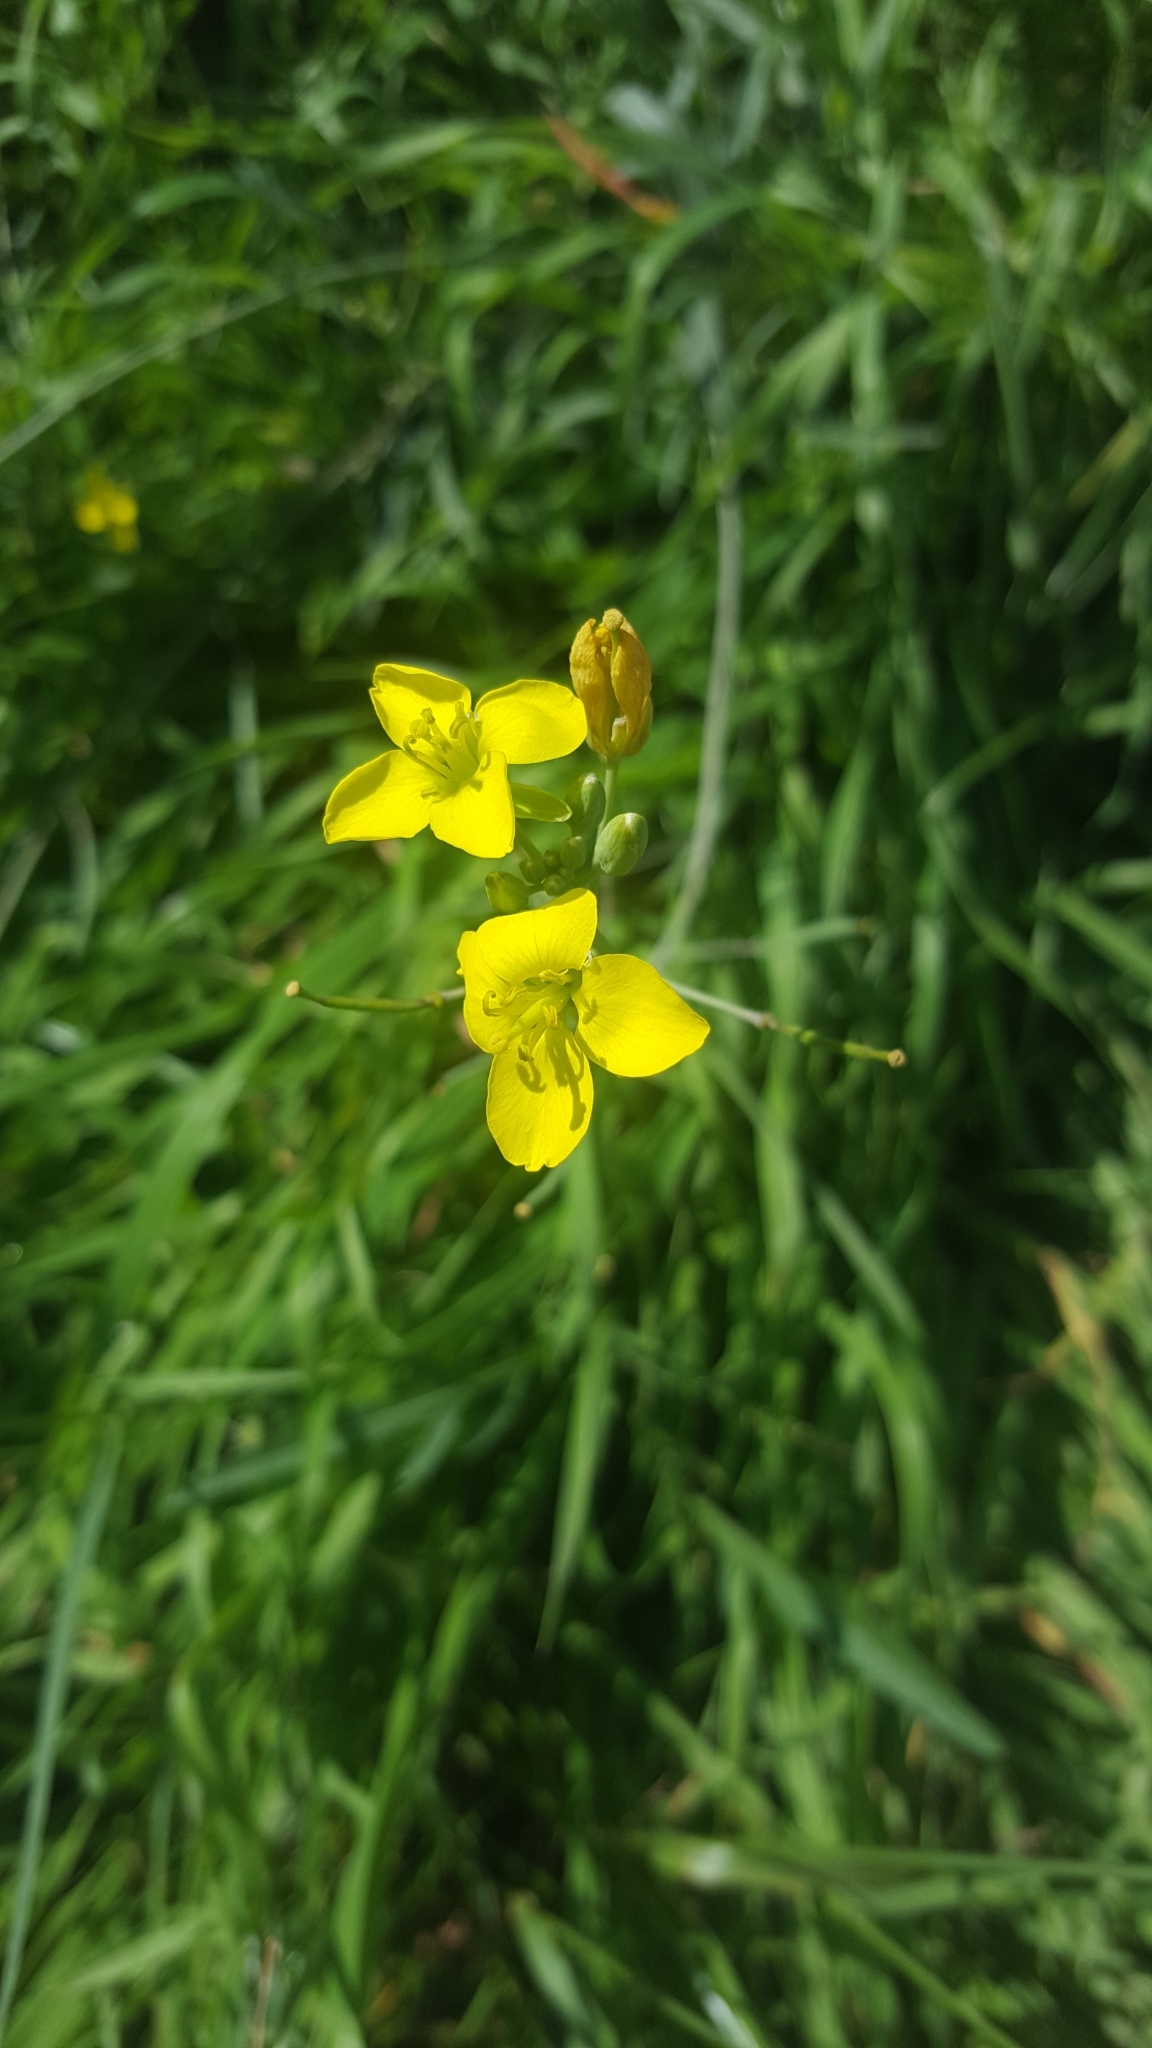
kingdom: Plantae
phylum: Tracheophyta
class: Magnoliopsida
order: Brassicales
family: Brassicaceae
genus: Diplotaxis
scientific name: Diplotaxis tenuifolia
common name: Perennial wall-rocket
